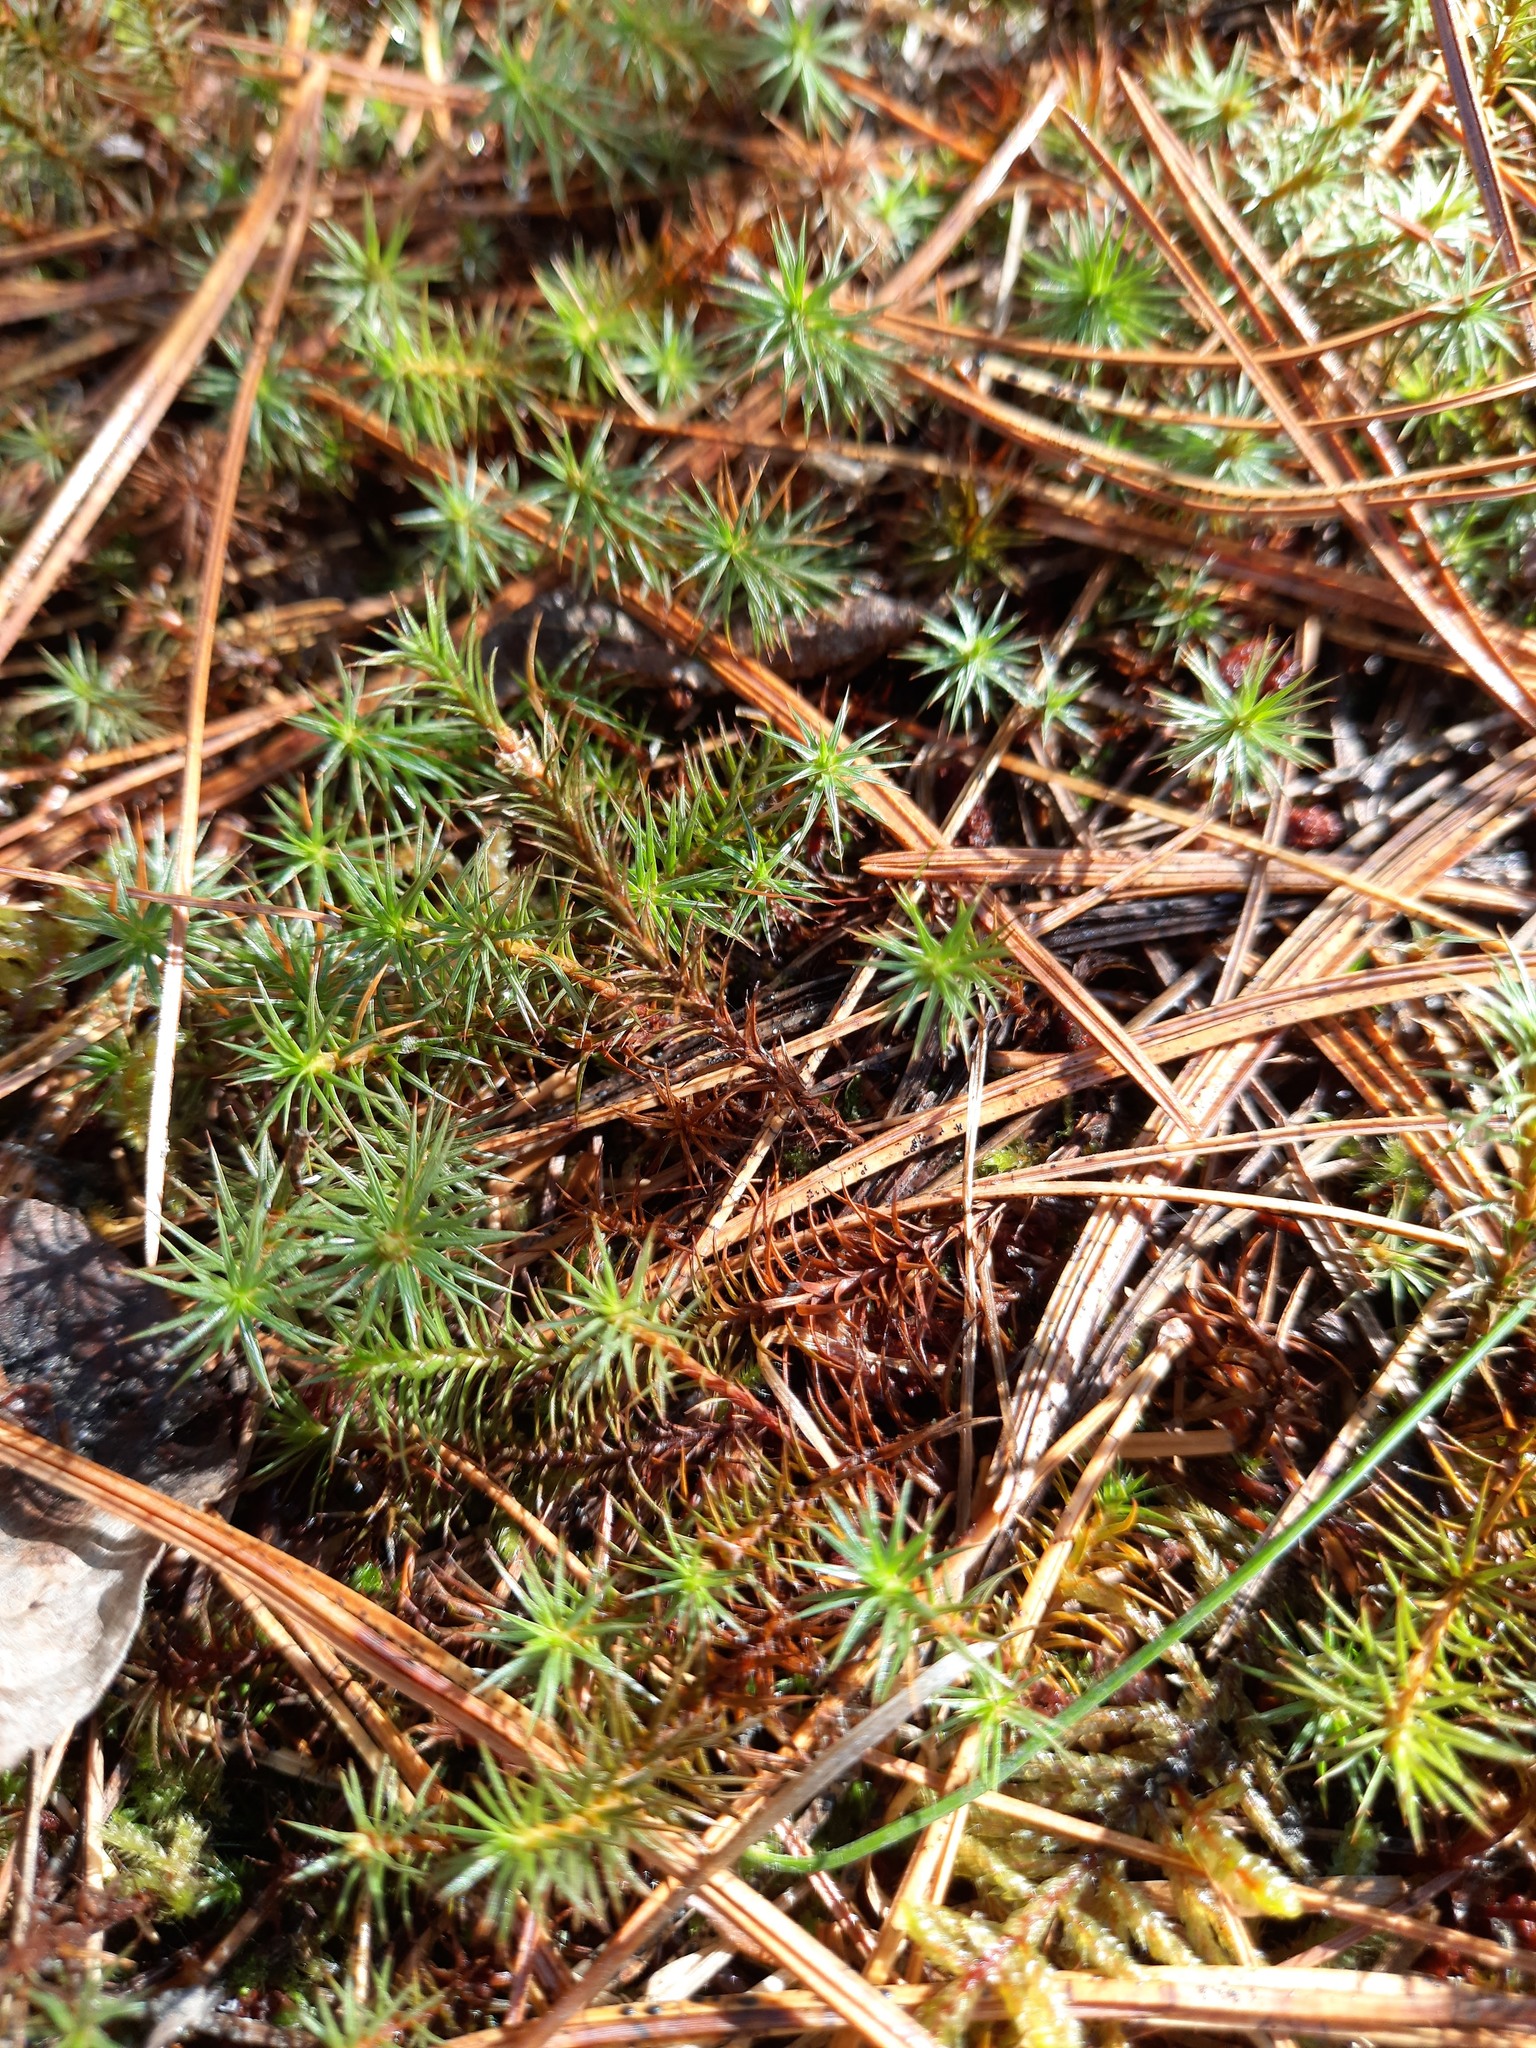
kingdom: Plantae
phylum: Bryophyta
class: Polytrichopsida
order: Polytrichales
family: Polytrichaceae
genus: Polytrichum
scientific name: Polytrichum juniperinum
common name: Juniper haircap moss
